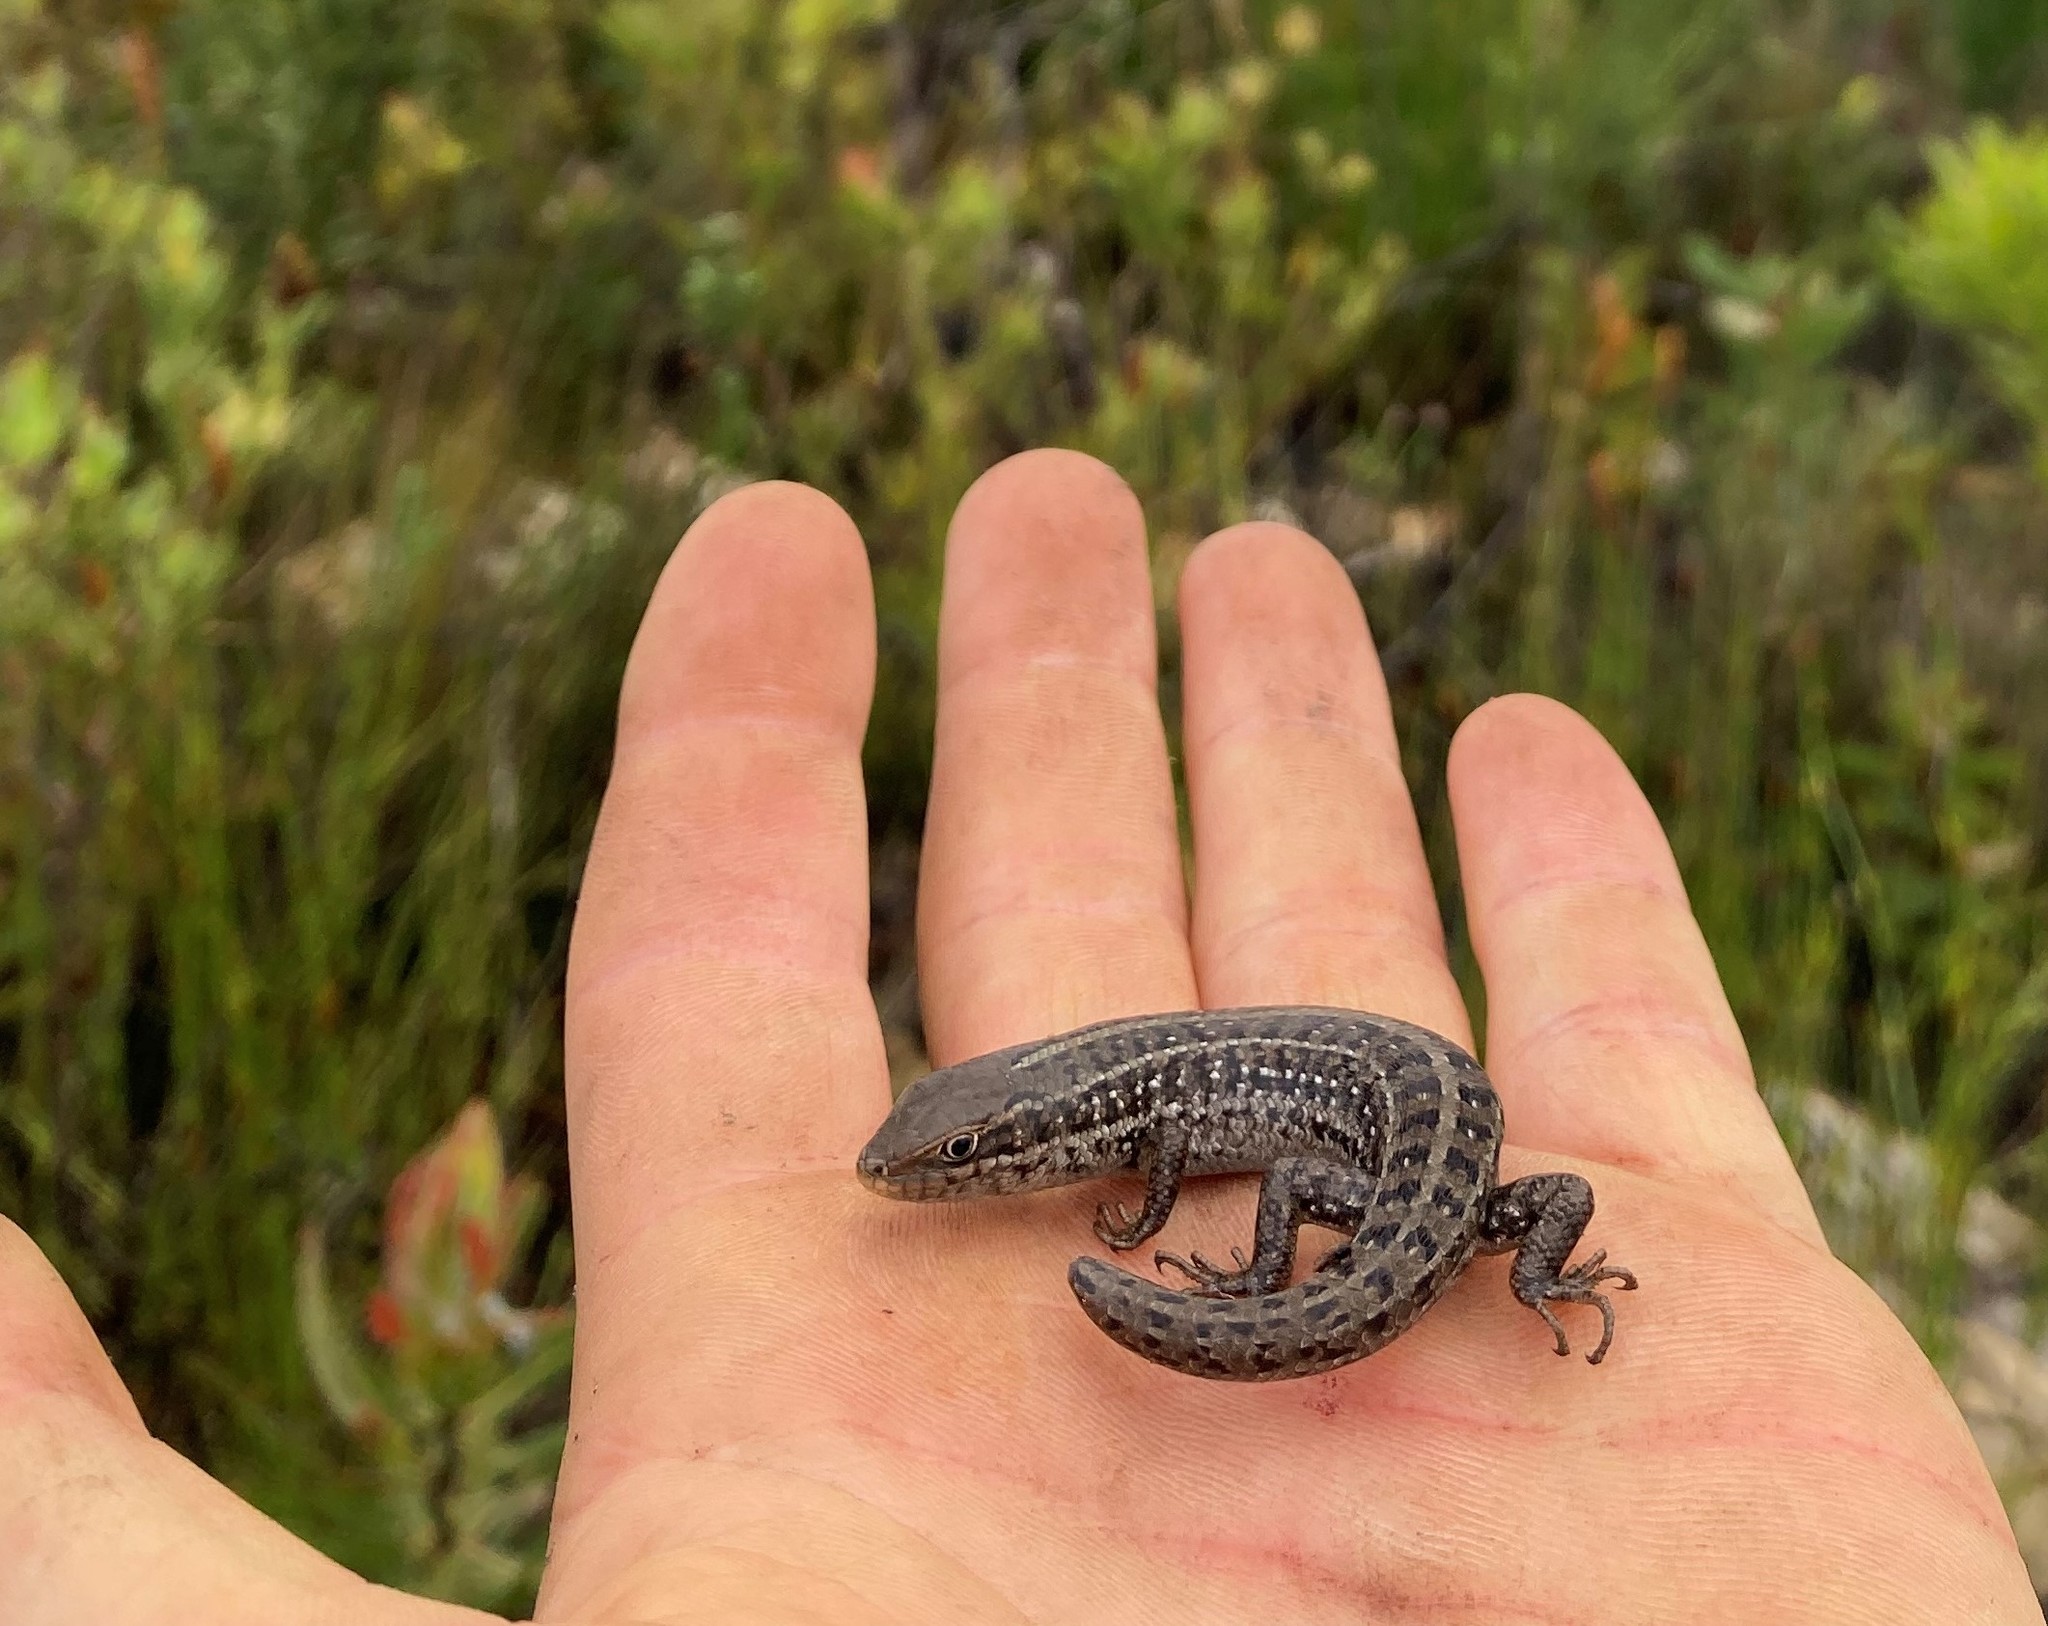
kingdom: Animalia
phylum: Chordata
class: Squamata
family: Scincidae
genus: Trachylepis
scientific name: Trachylepis capensis
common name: Cape skink
